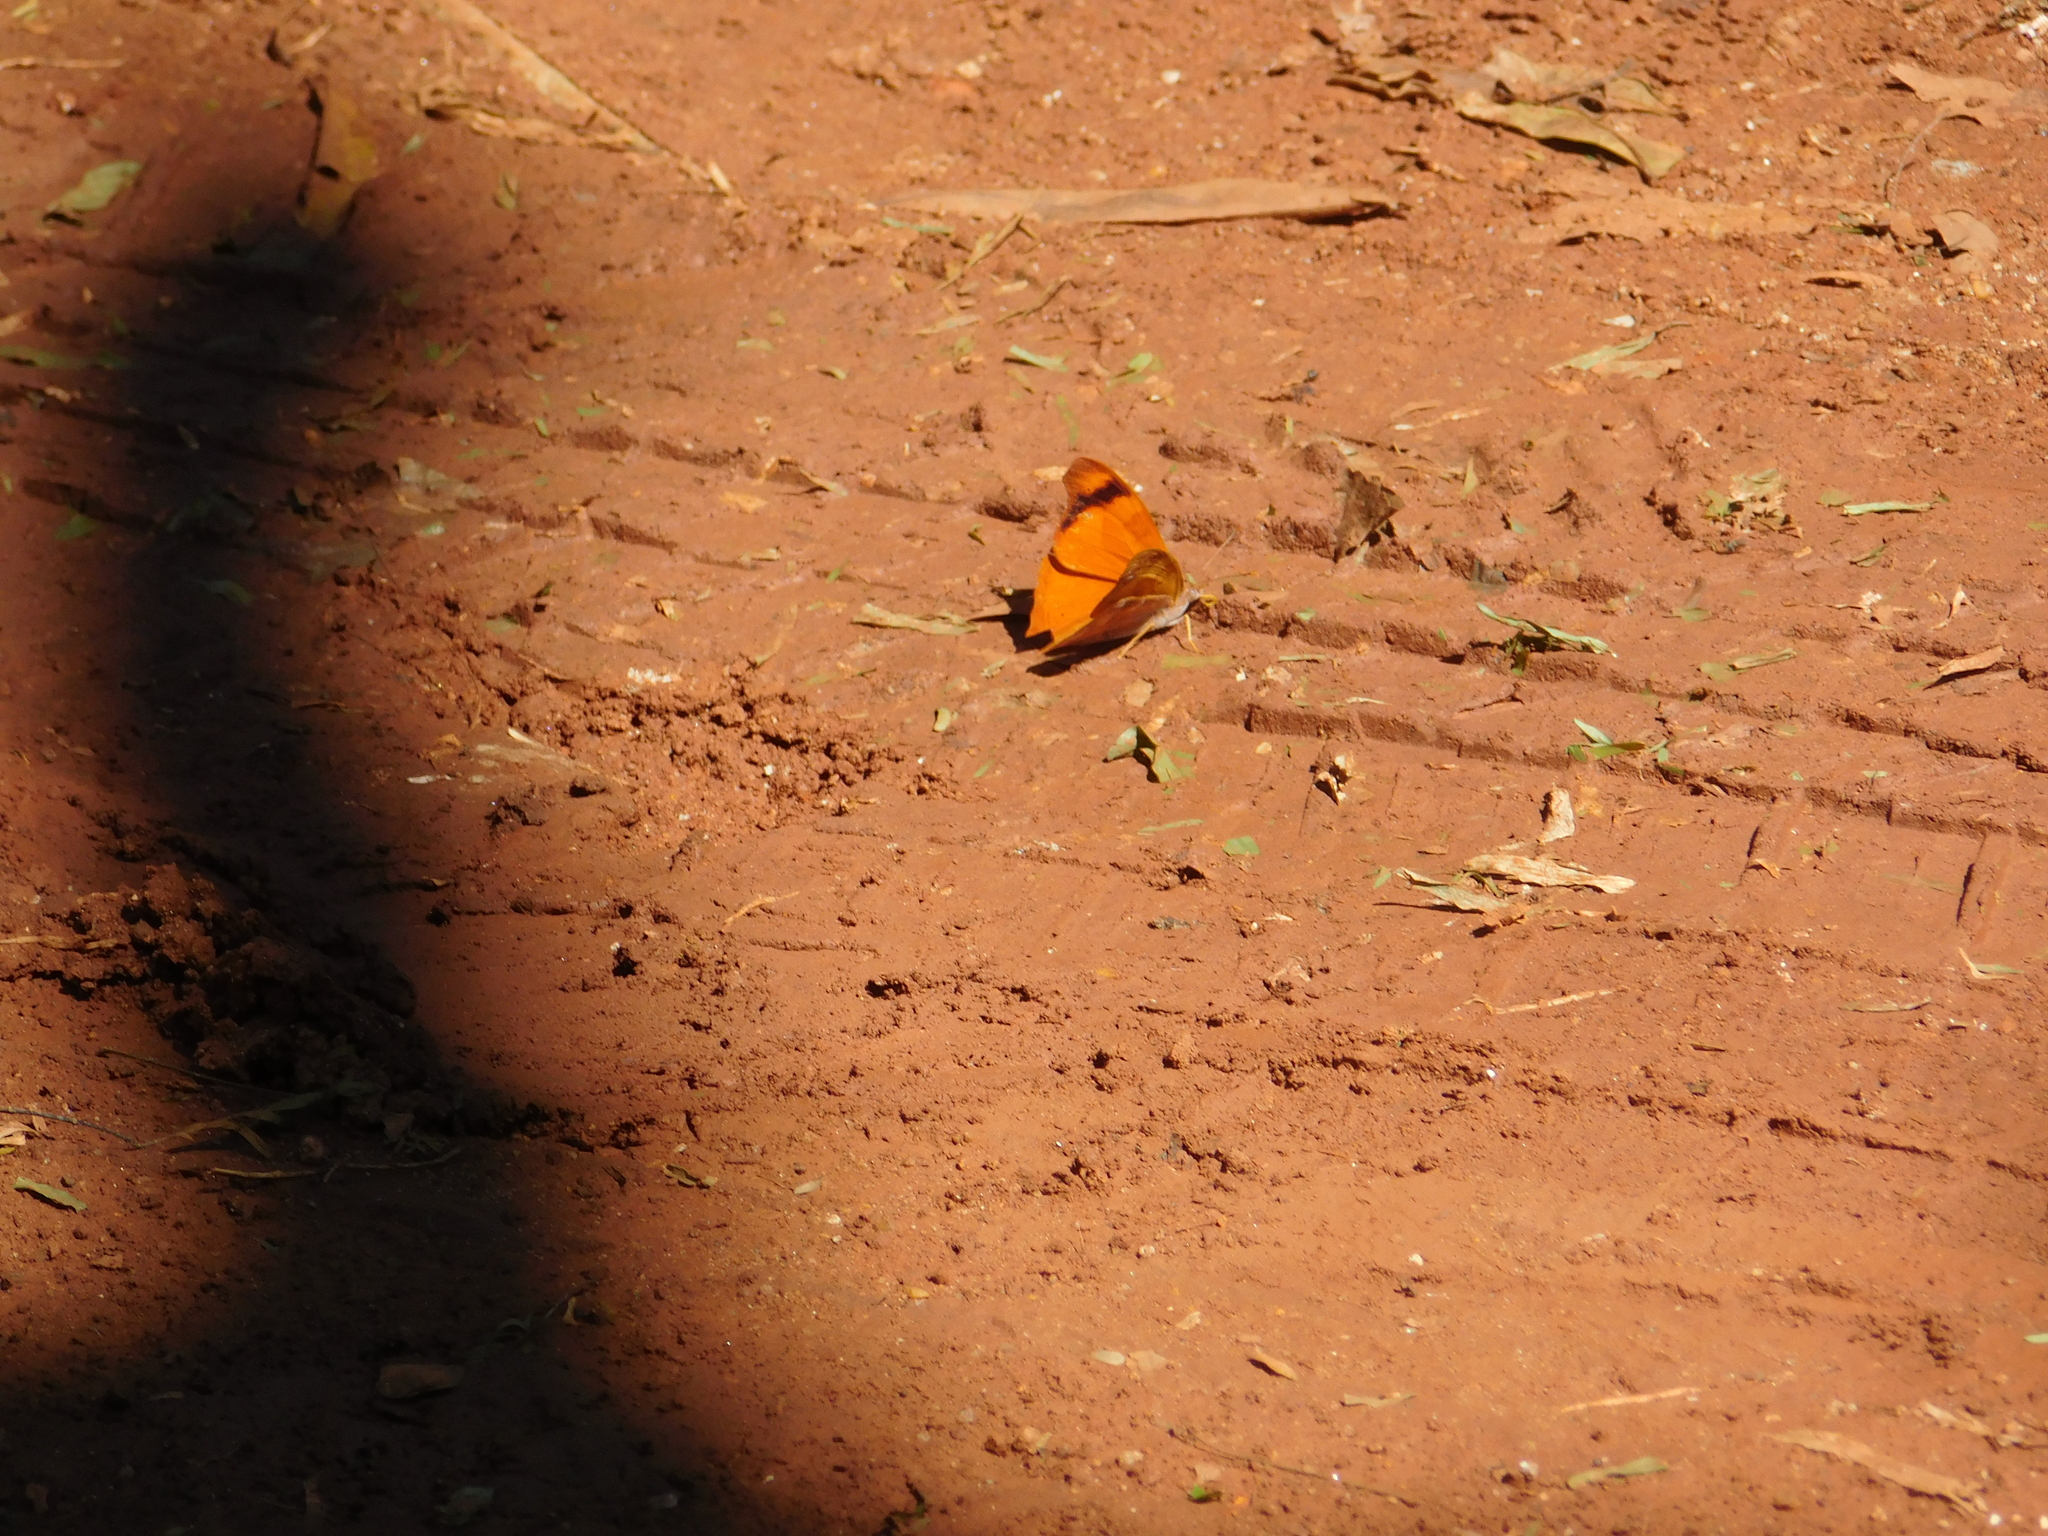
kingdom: Animalia
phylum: Arthropoda
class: Insecta
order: Lepidoptera
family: Nymphalidae
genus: Temenis
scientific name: Temenis laothoe
